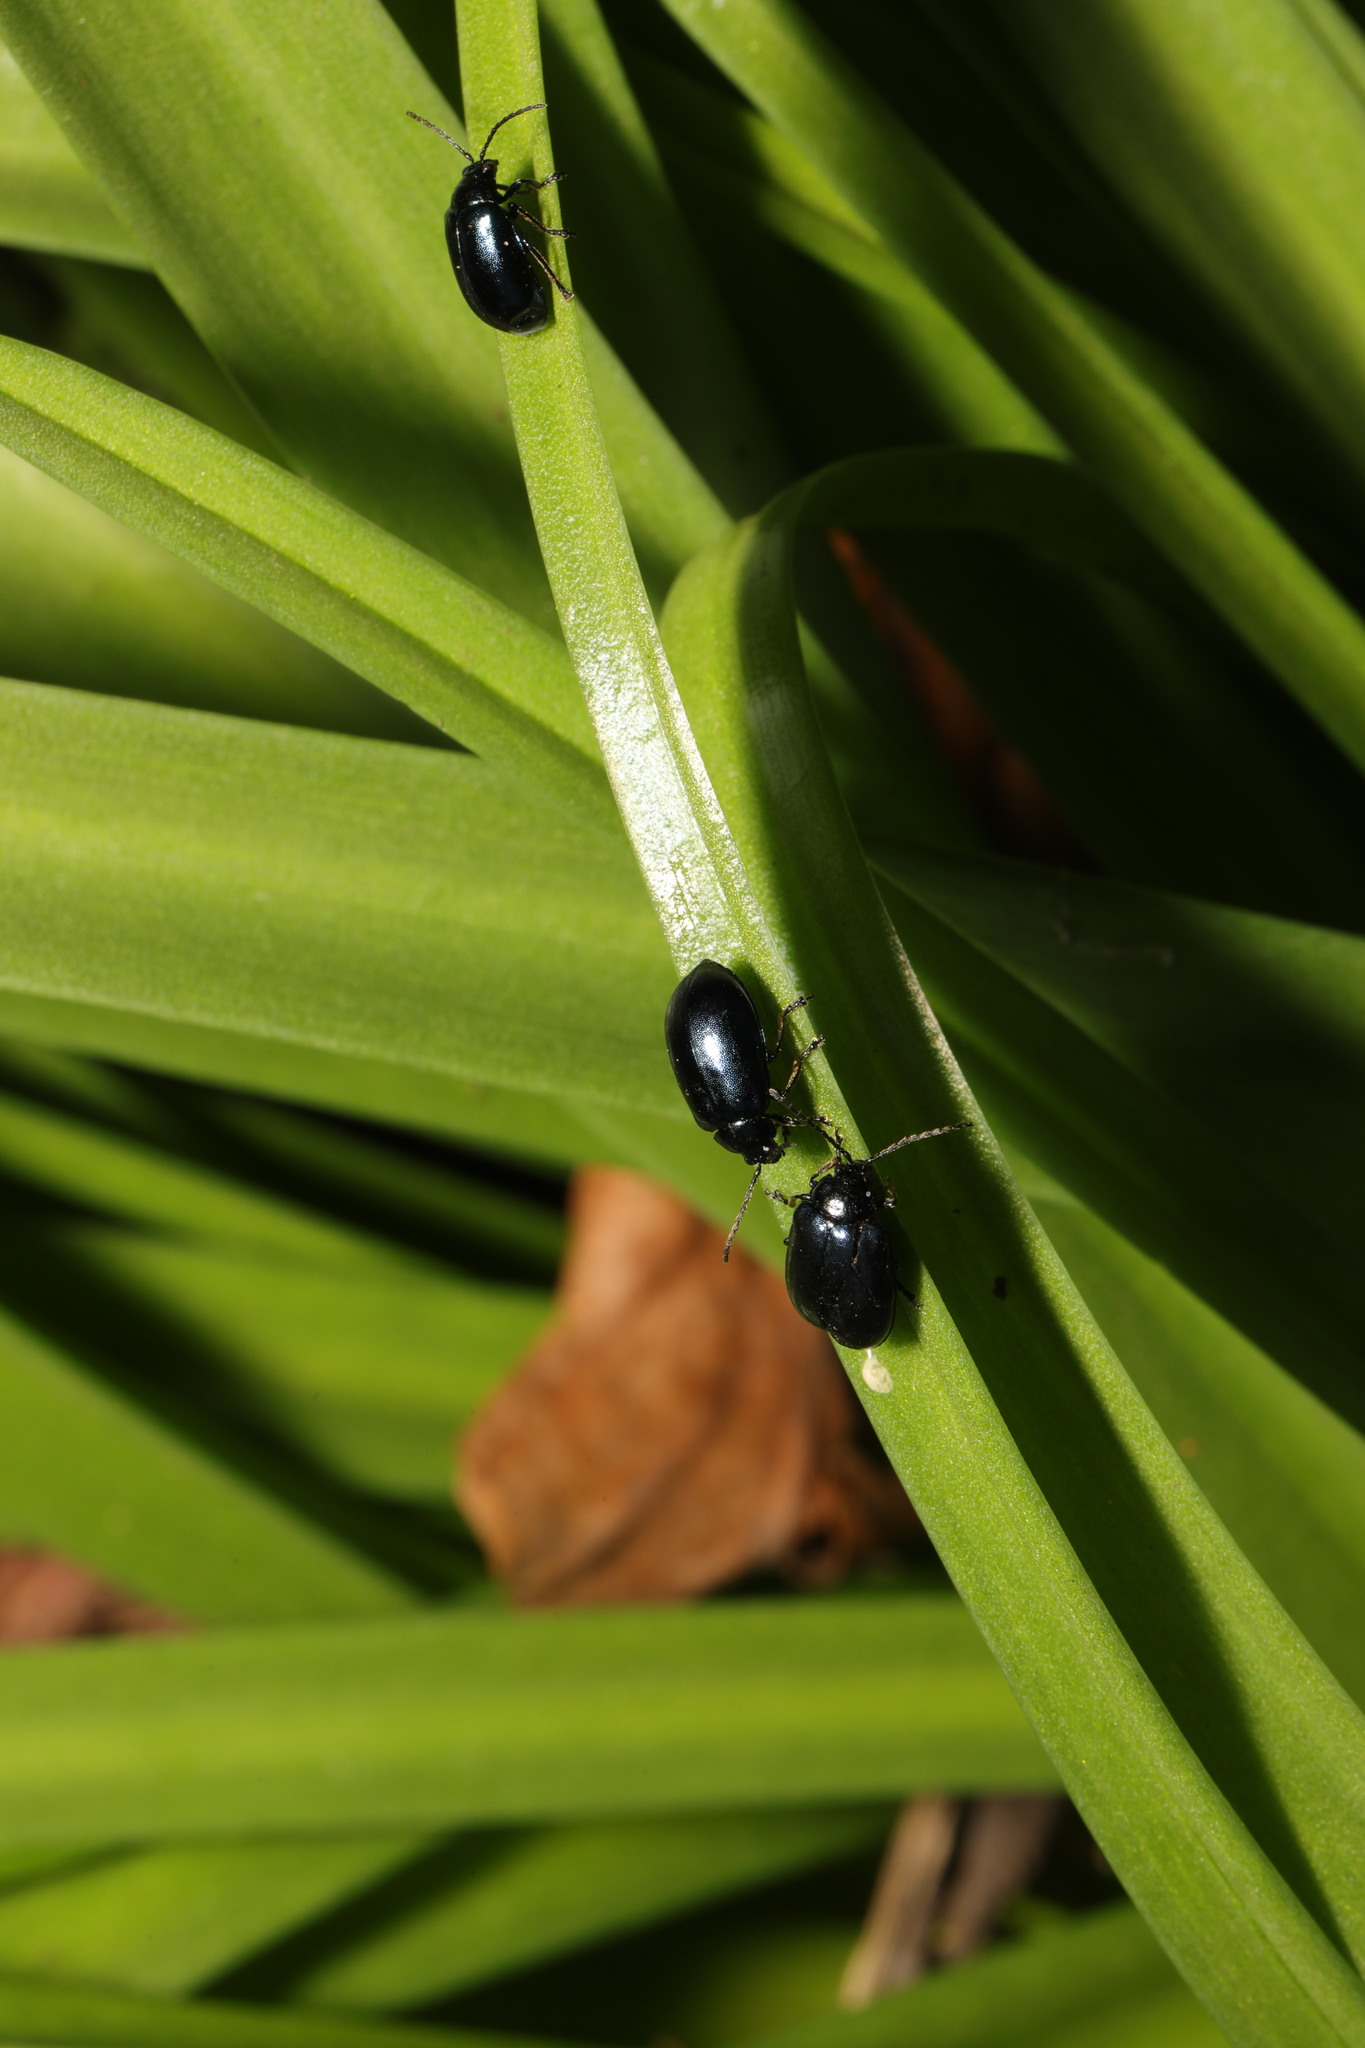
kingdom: Animalia
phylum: Arthropoda
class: Insecta
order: Coleoptera
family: Chrysomelidae
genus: Agelastica
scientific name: Agelastica alni
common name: Alder leaf beetle
